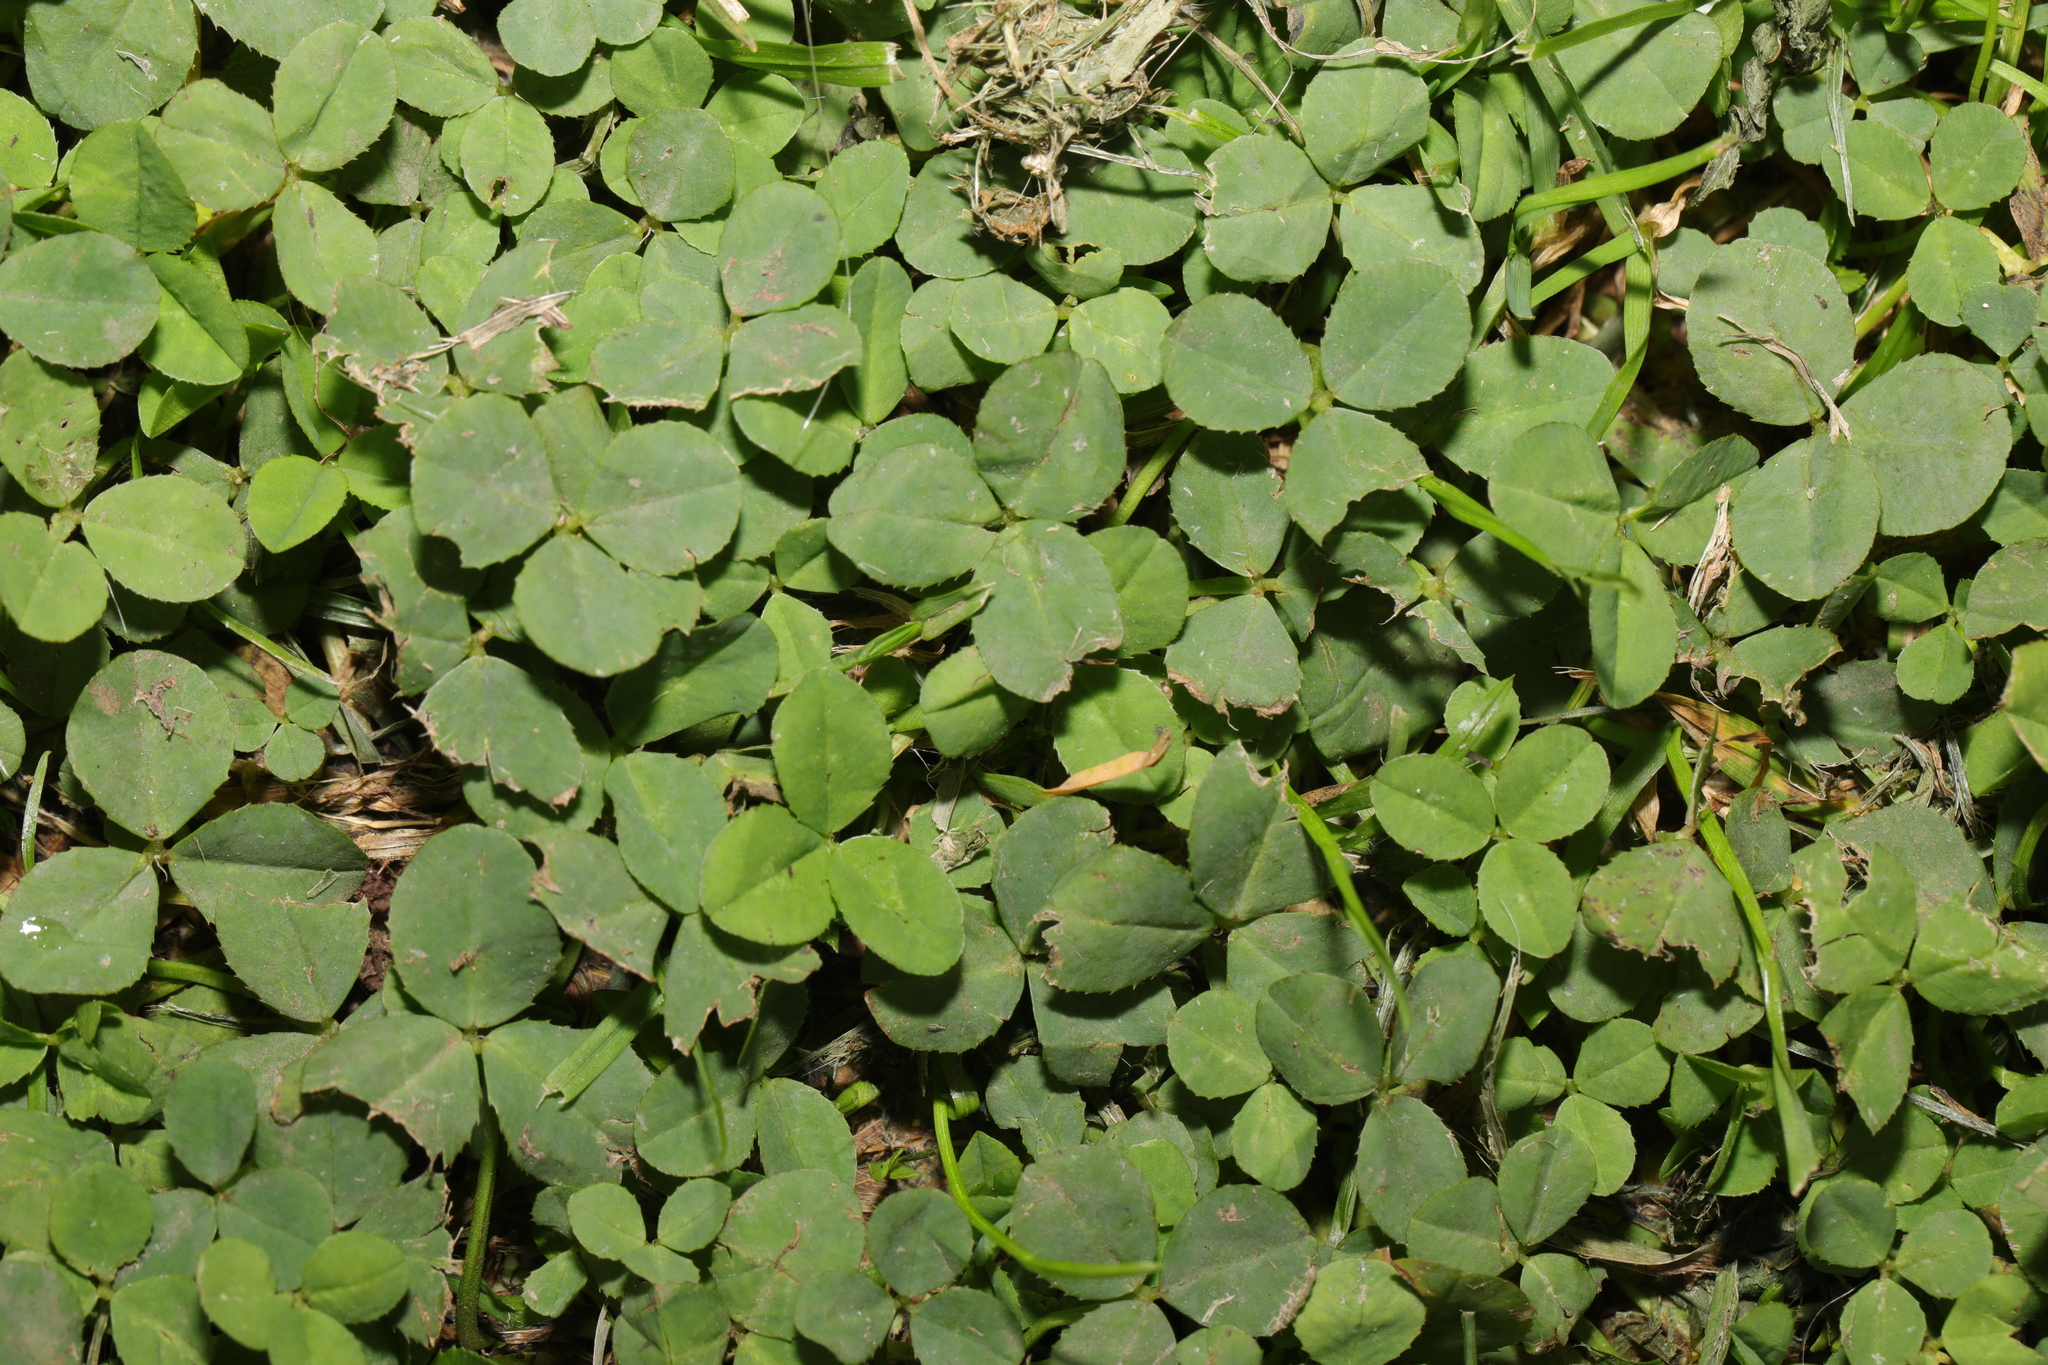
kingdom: Plantae
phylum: Tracheophyta
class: Magnoliopsida
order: Fabales
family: Fabaceae
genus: Trifolium
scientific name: Trifolium repens
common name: White clover
